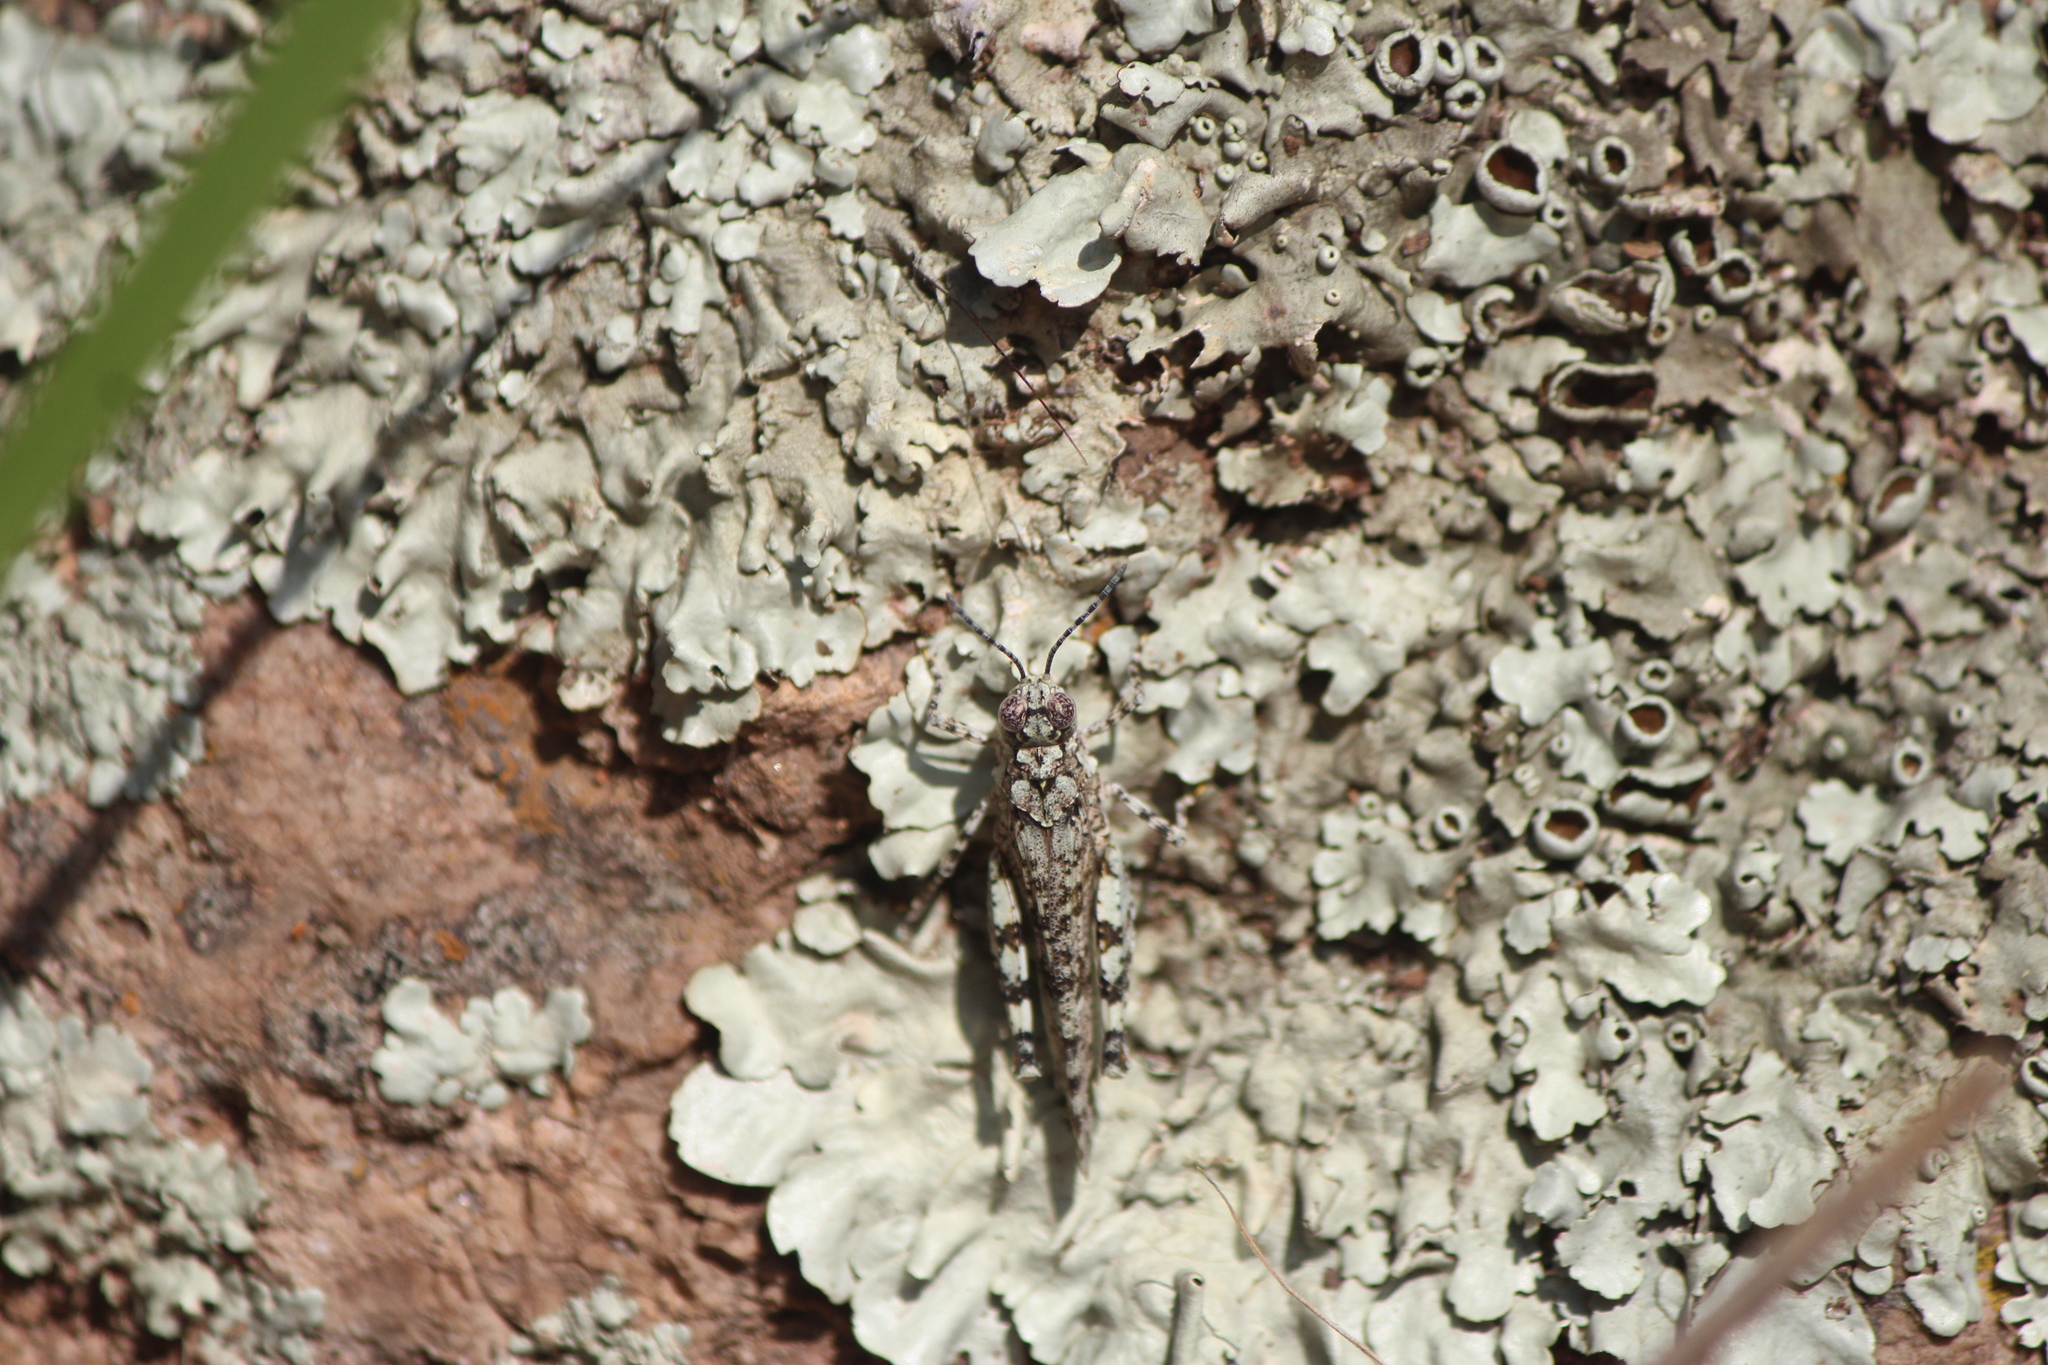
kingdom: Animalia
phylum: Arthropoda
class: Insecta
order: Orthoptera
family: Acrididae
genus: Leuronotina
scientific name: Leuronotina ritensis
